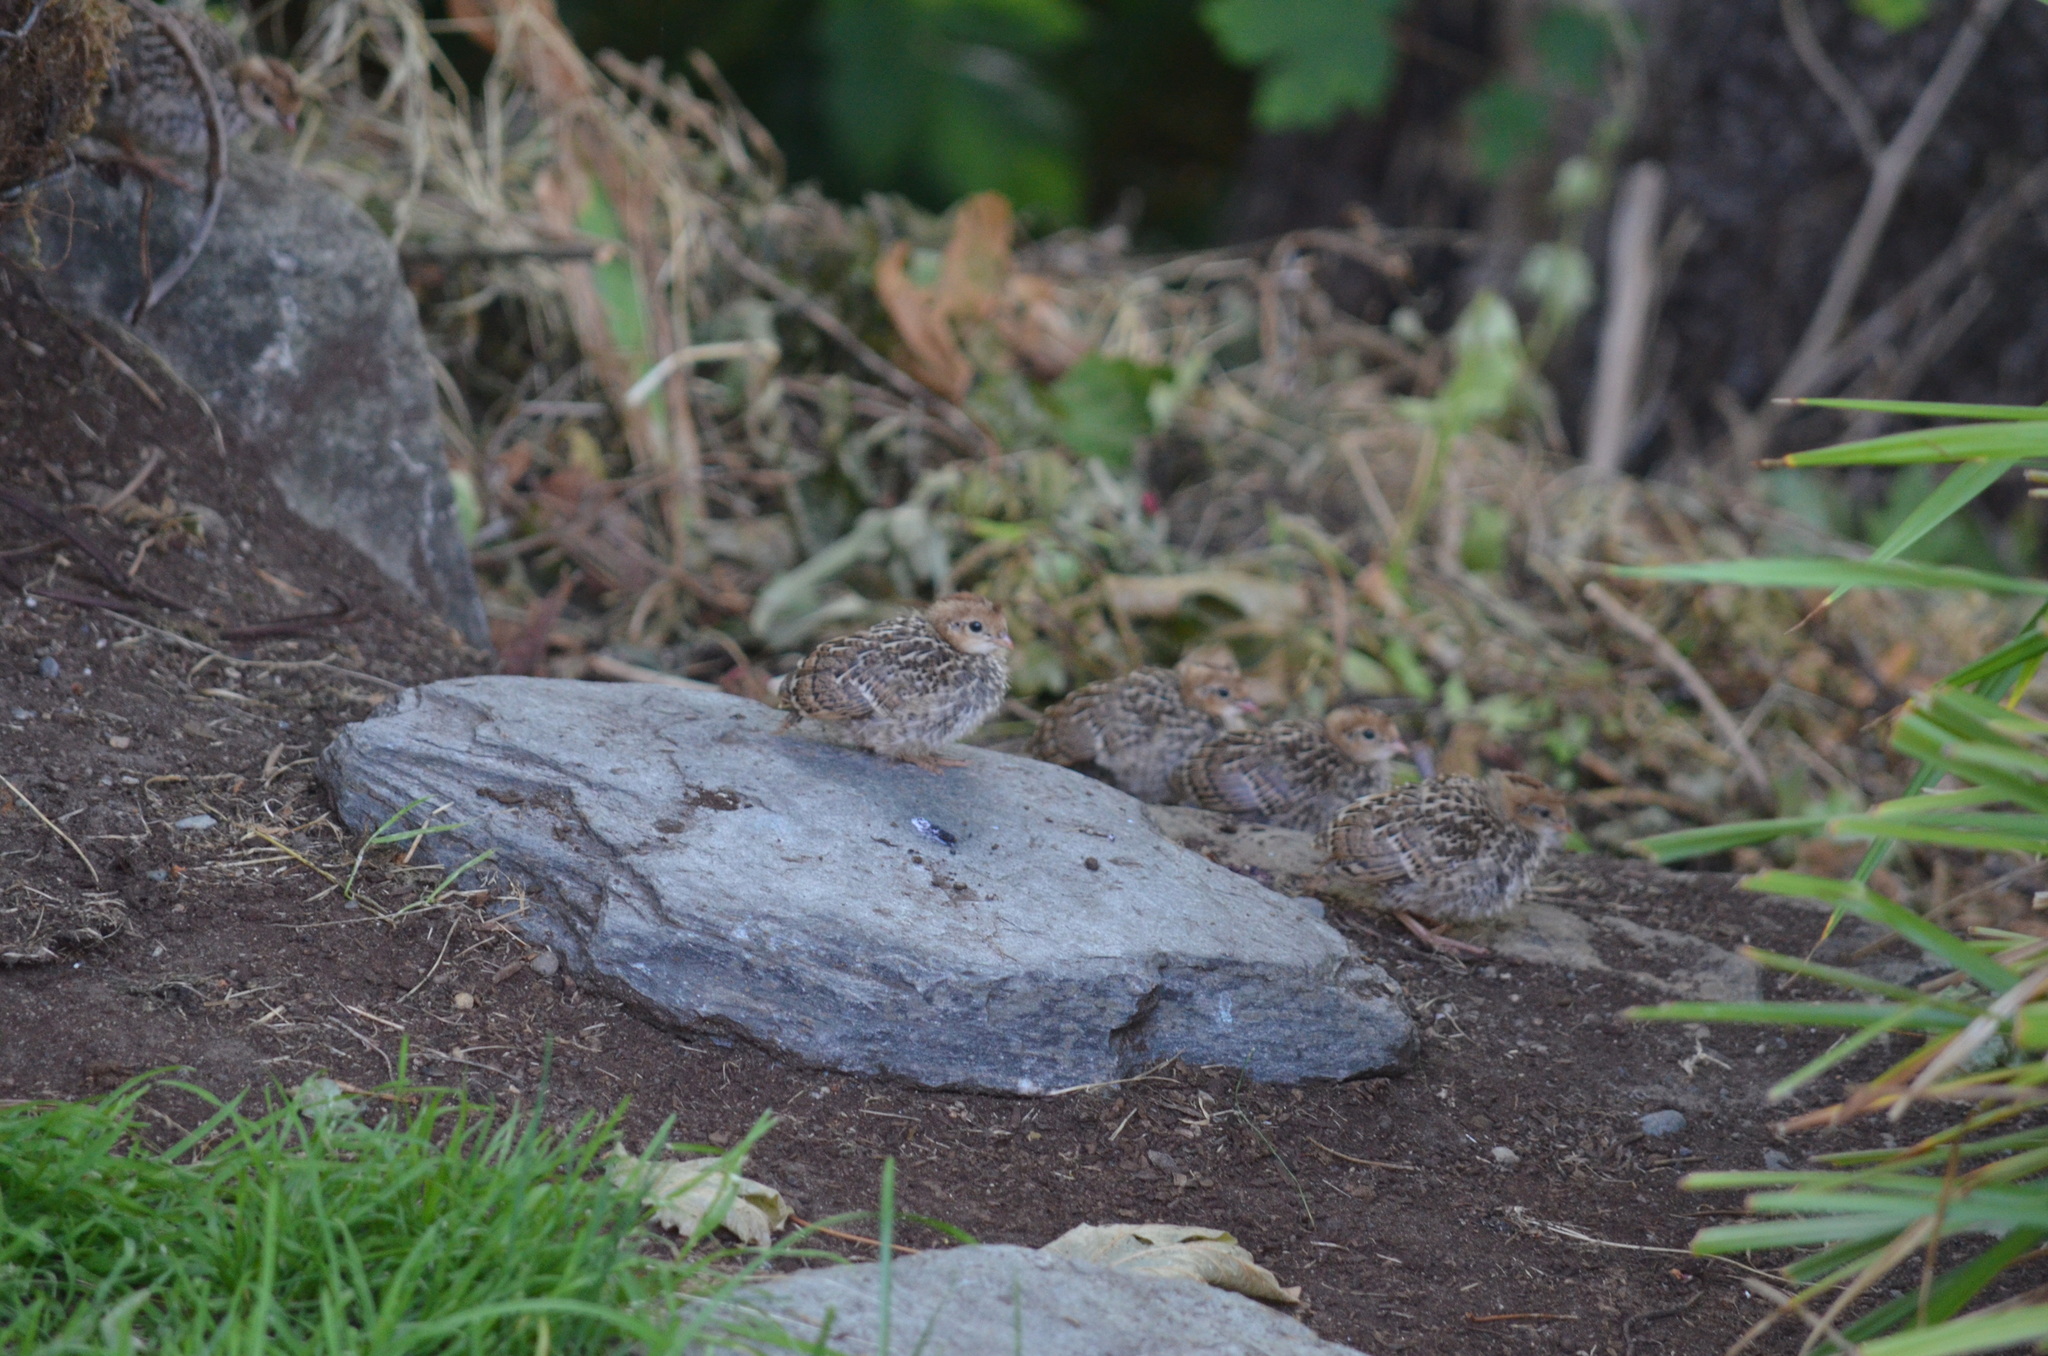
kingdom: Animalia
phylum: Chordata
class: Aves
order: Galliformes
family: Odontophoridae
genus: Callipepla
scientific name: Callipepla californica
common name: California quail
